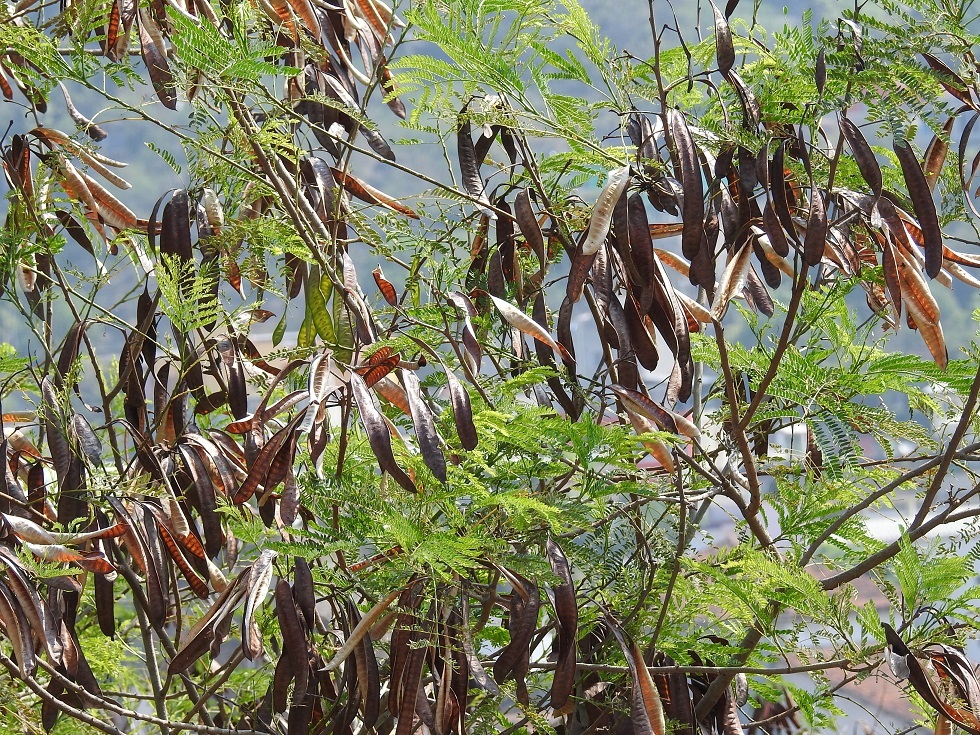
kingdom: Plantae
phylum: Tracheophyta
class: Magnoliopsida
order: Fabales
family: Fabaceae
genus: Leucaena
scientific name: Leucaena cuspidata
